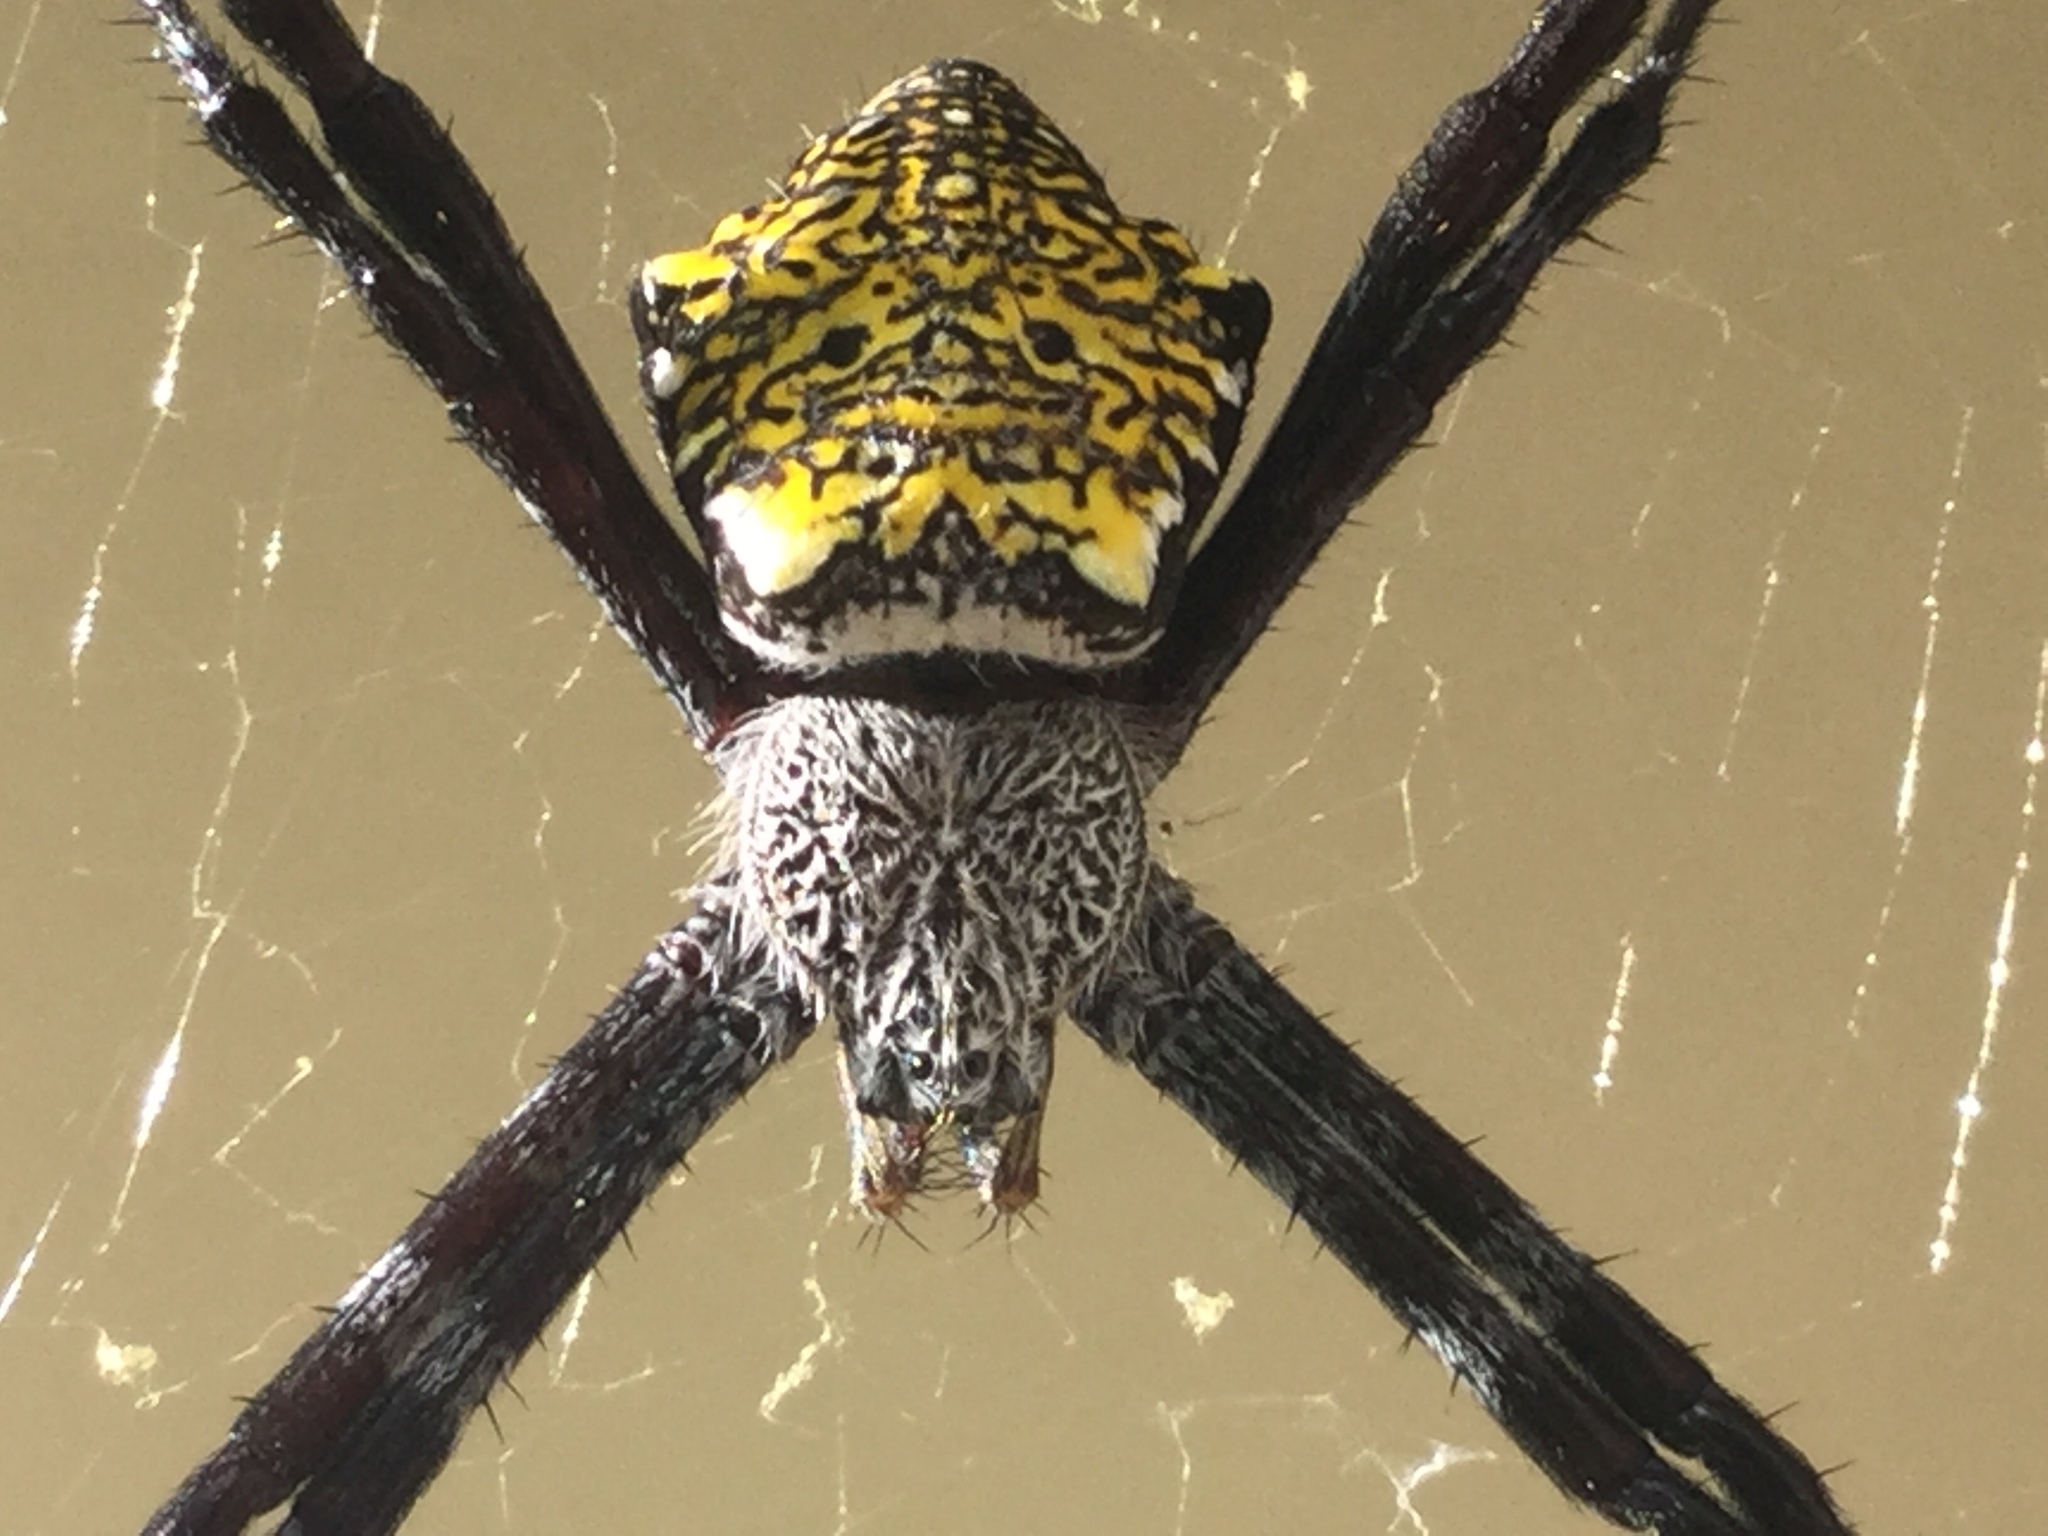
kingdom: Animalia
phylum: Arthropoda
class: Arachnida
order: Araneae
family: Araneidae
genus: Argiope
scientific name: Argiope appensa
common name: Garden spider
